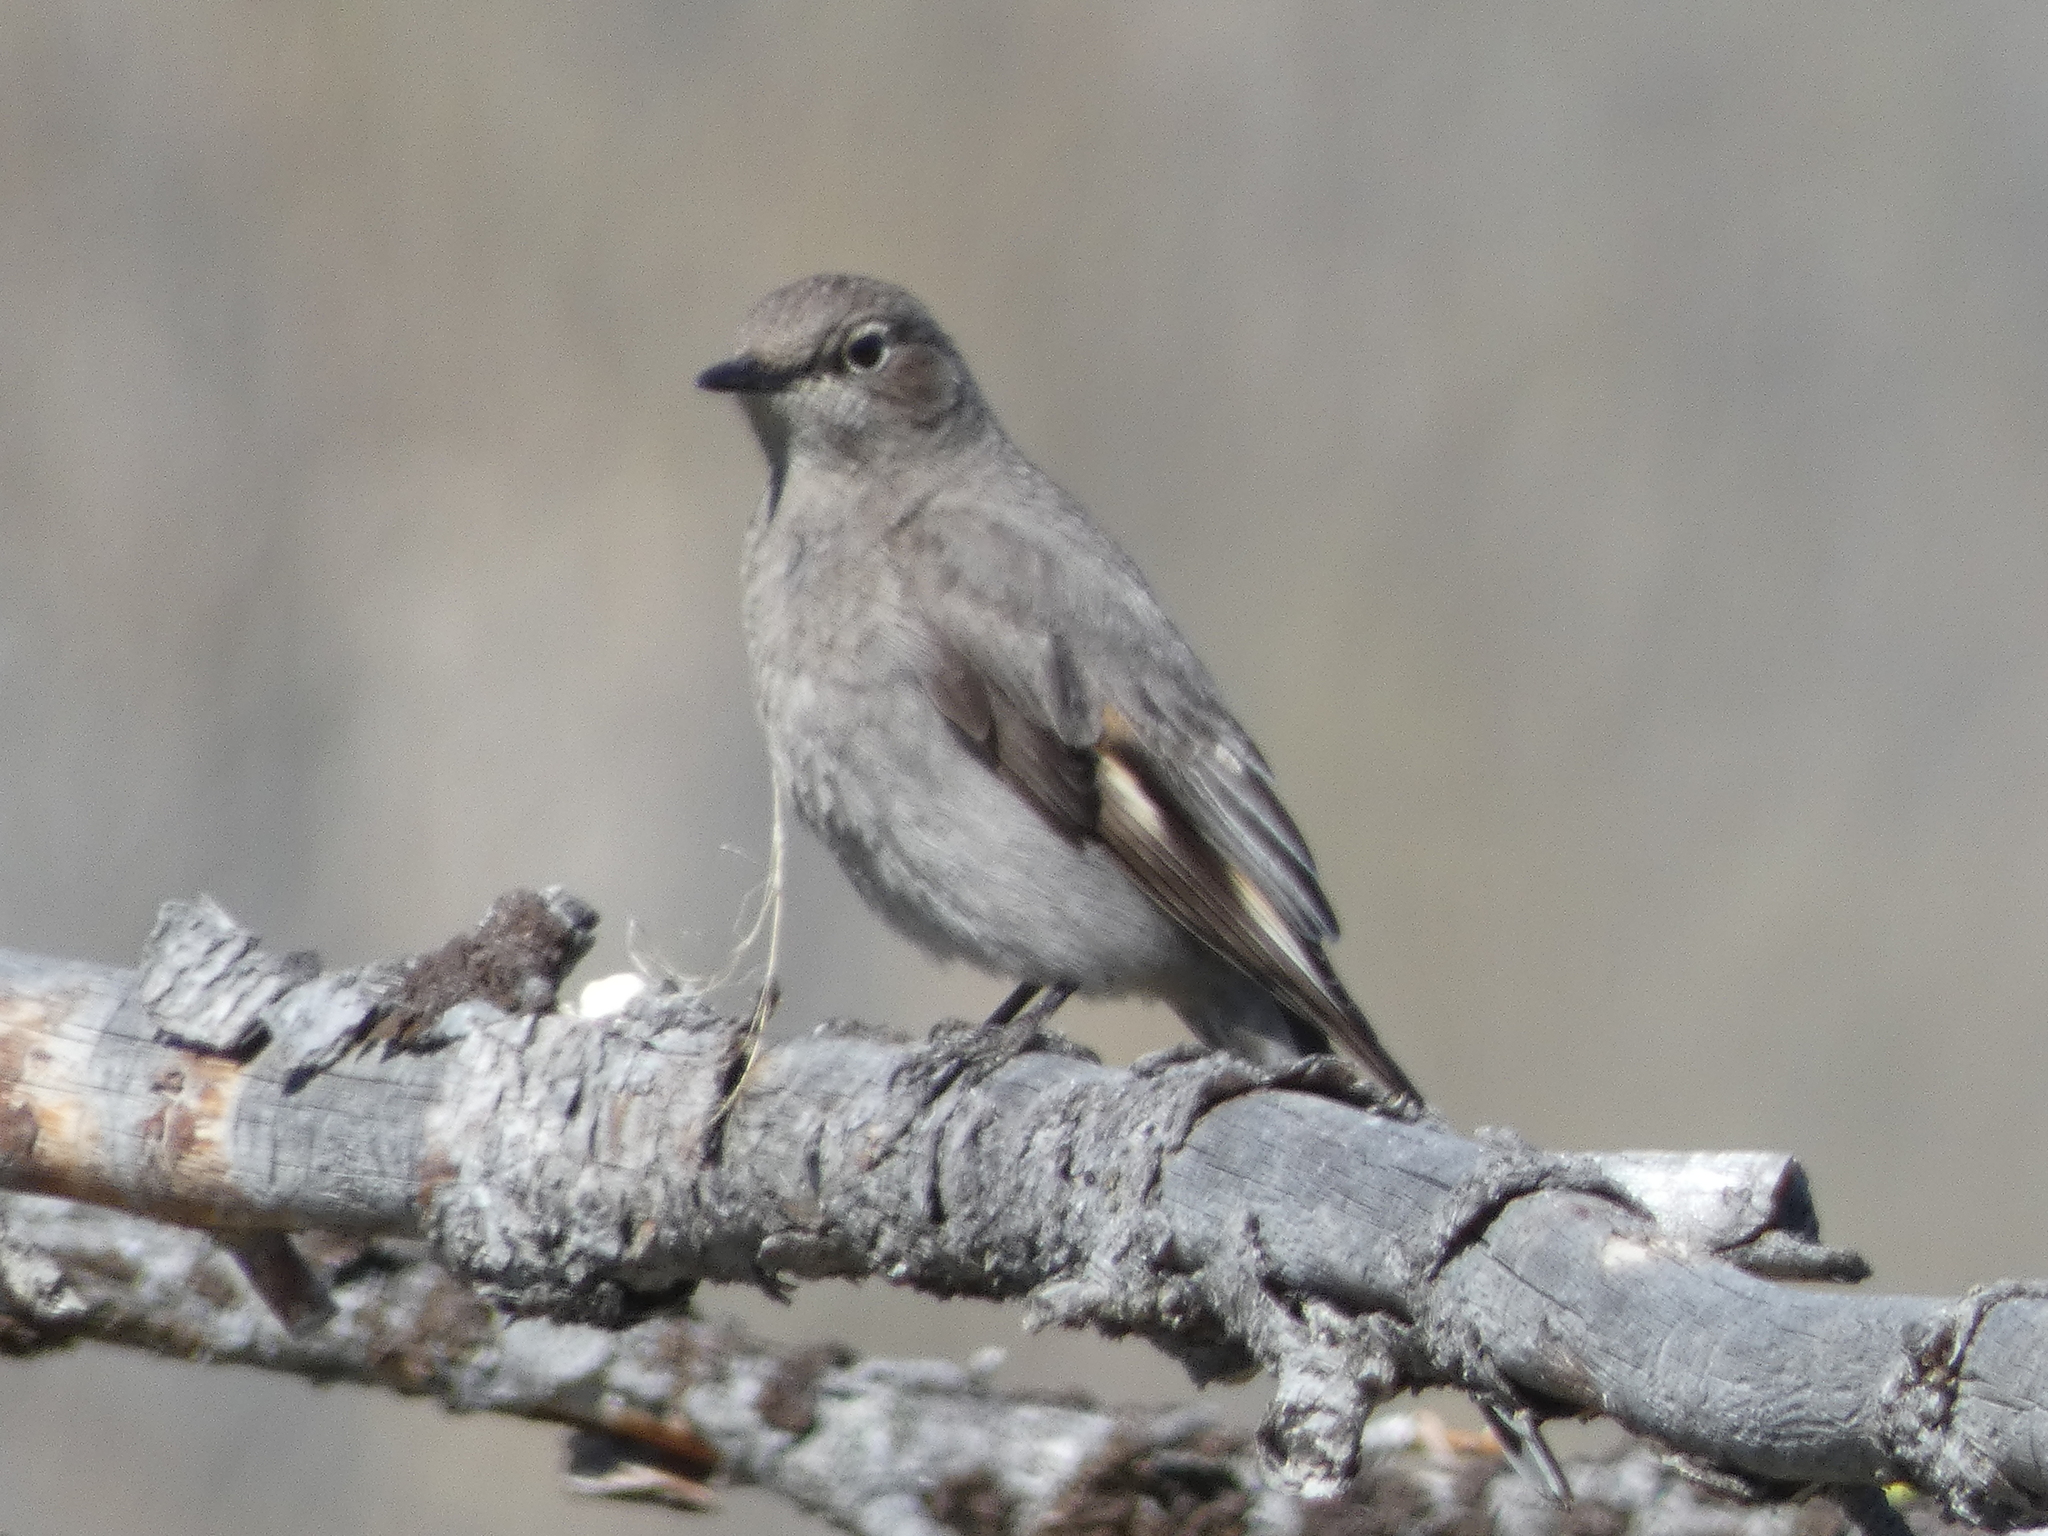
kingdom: Animalia
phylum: Chordata
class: Aves
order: Passeriformes
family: Turdidae
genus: Myadestes
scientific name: Myadestes townsendi
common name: Townsend's solitaire
